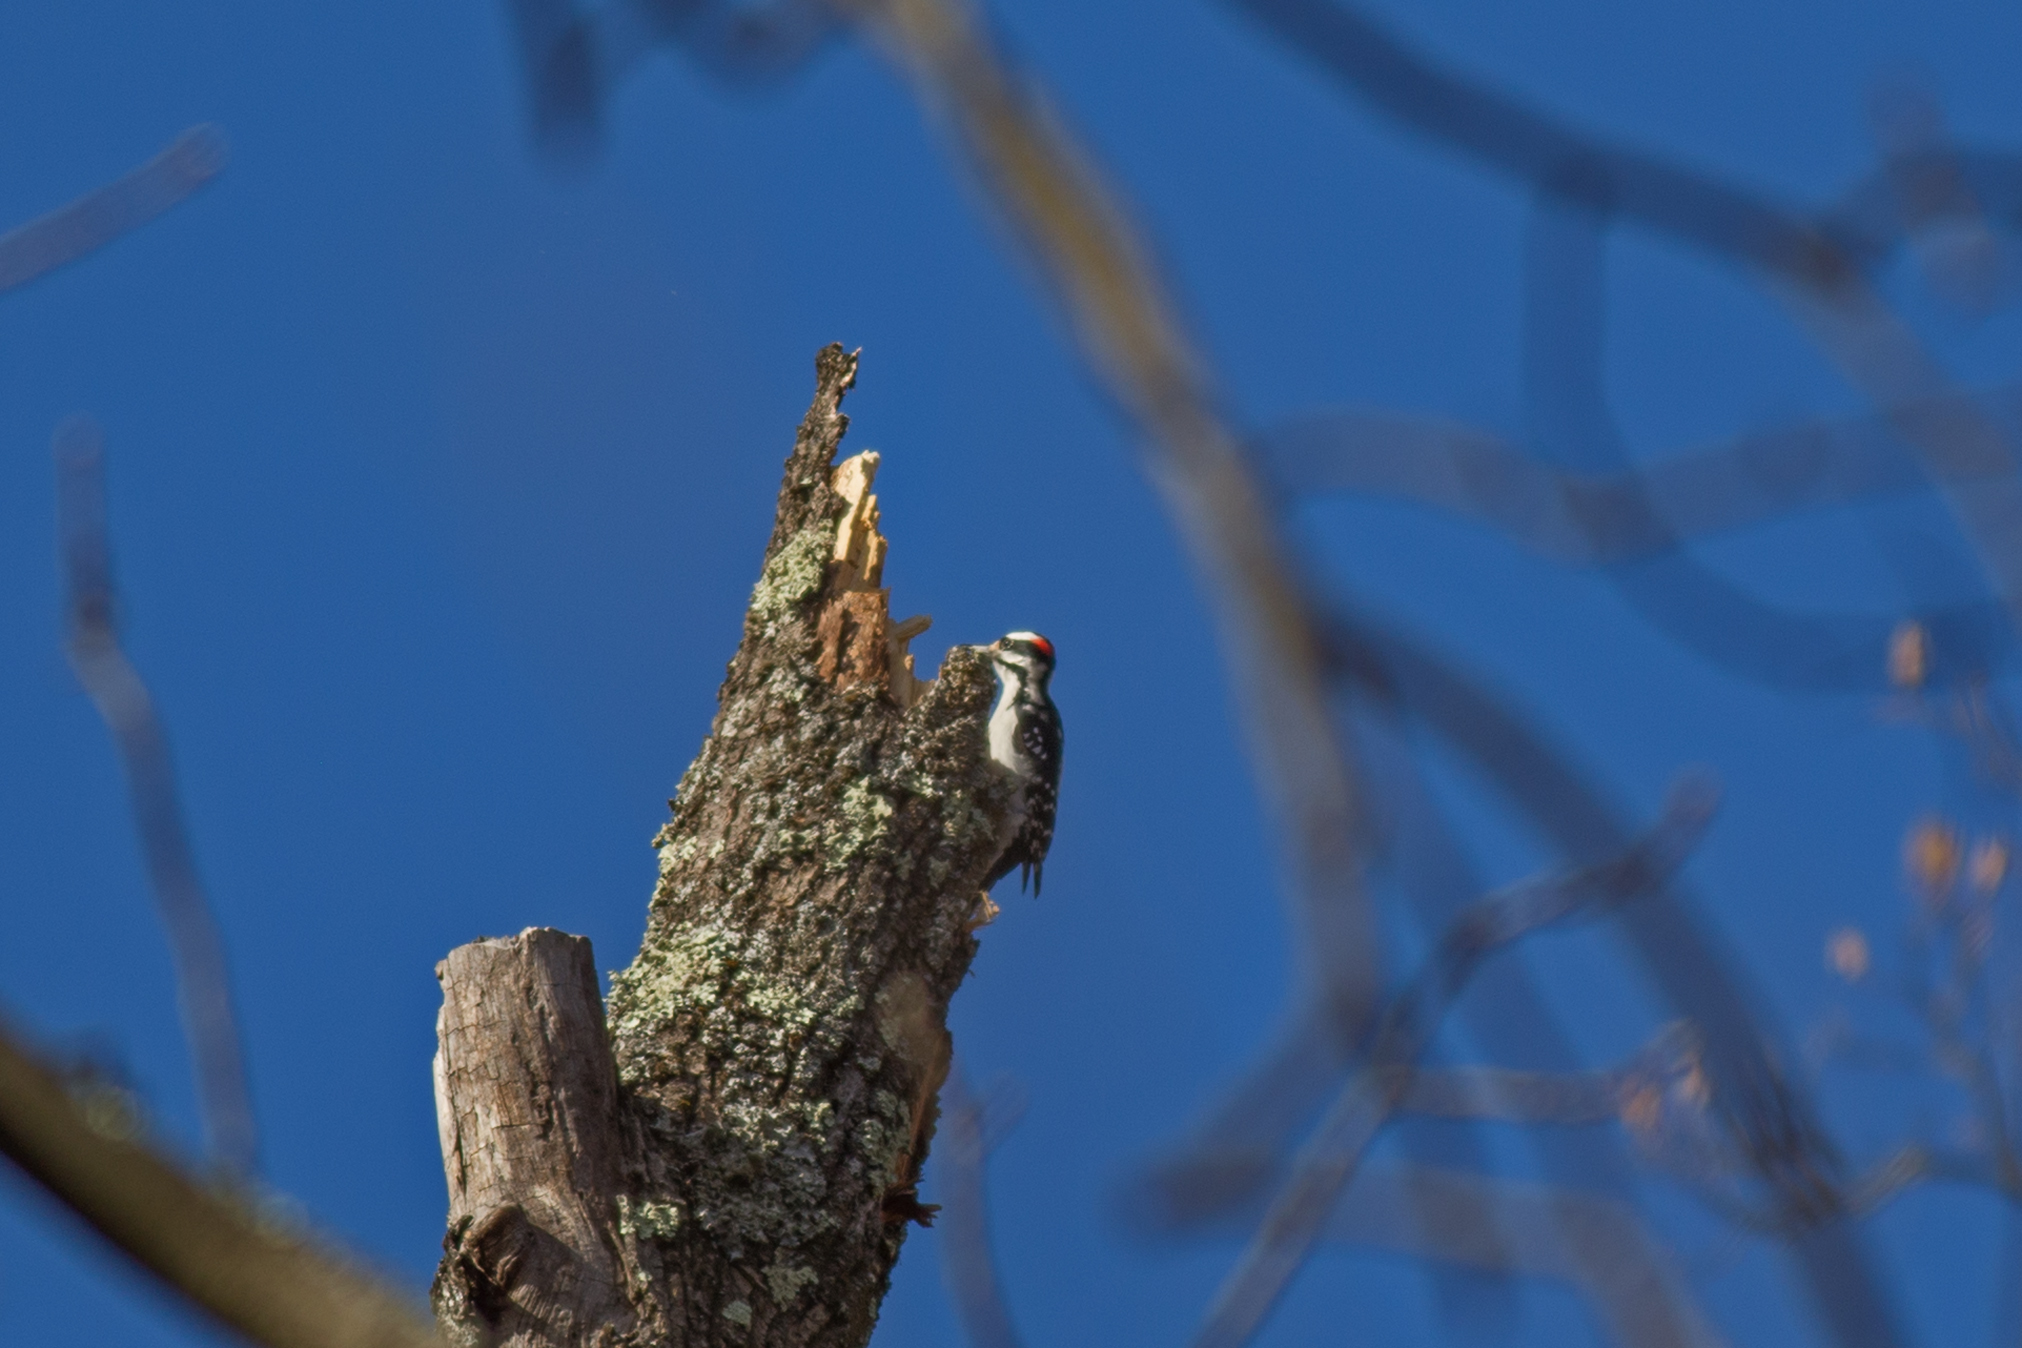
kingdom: Animalia
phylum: Chordata
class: Aves
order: Piciformes
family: Picidae
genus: Leuconotopicus
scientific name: Leuconotopicus villosus
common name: Hairy woodpecker
